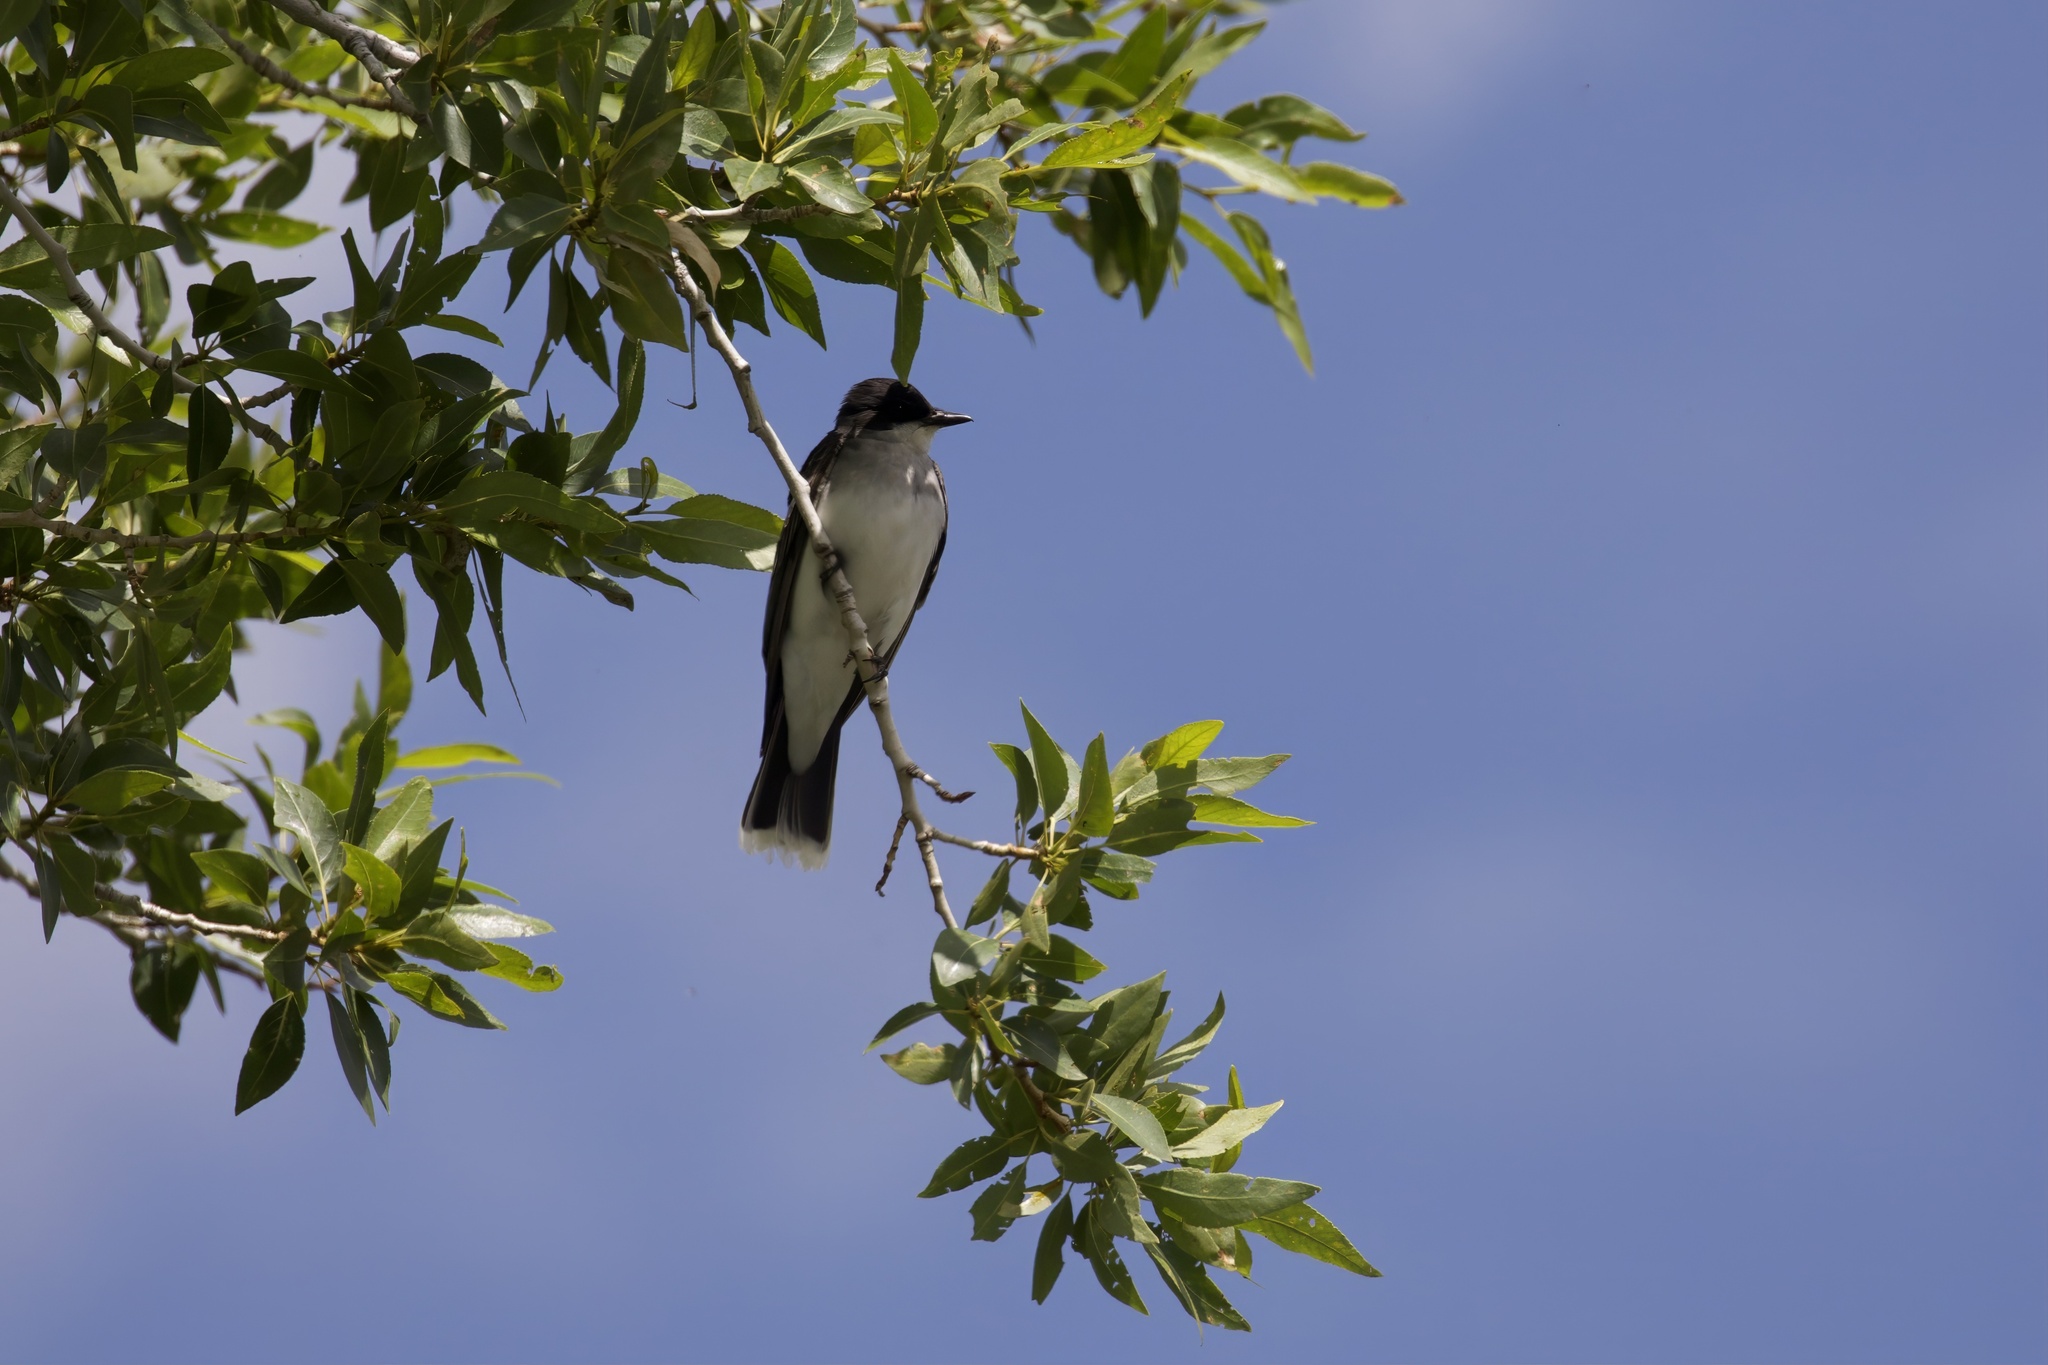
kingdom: Animalia
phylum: Chordata
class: Aves
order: Passeriformes
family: Tyrannidae
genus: Tyrannus
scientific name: Tyrannus tyrannus
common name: Eastern kingbird
